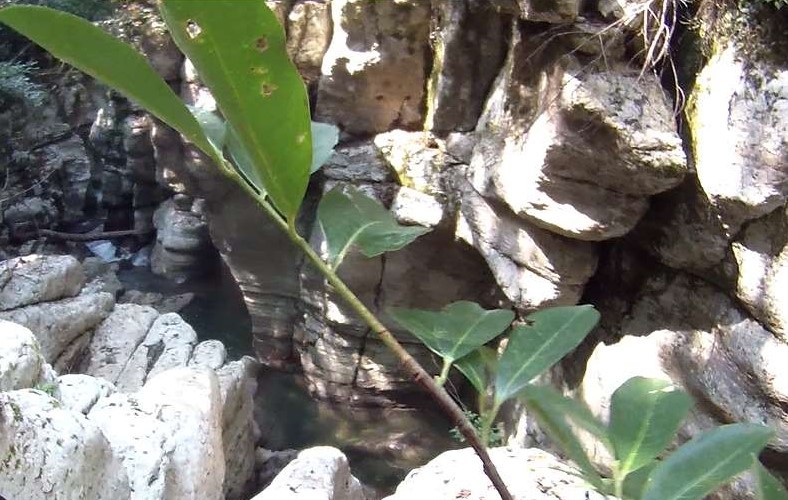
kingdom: Plantae
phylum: Tracheophyta
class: Magnoliopsida
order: Rosales
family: Rosaceae
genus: Prunus
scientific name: Prunus laurocerasus
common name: Cherry laurel
